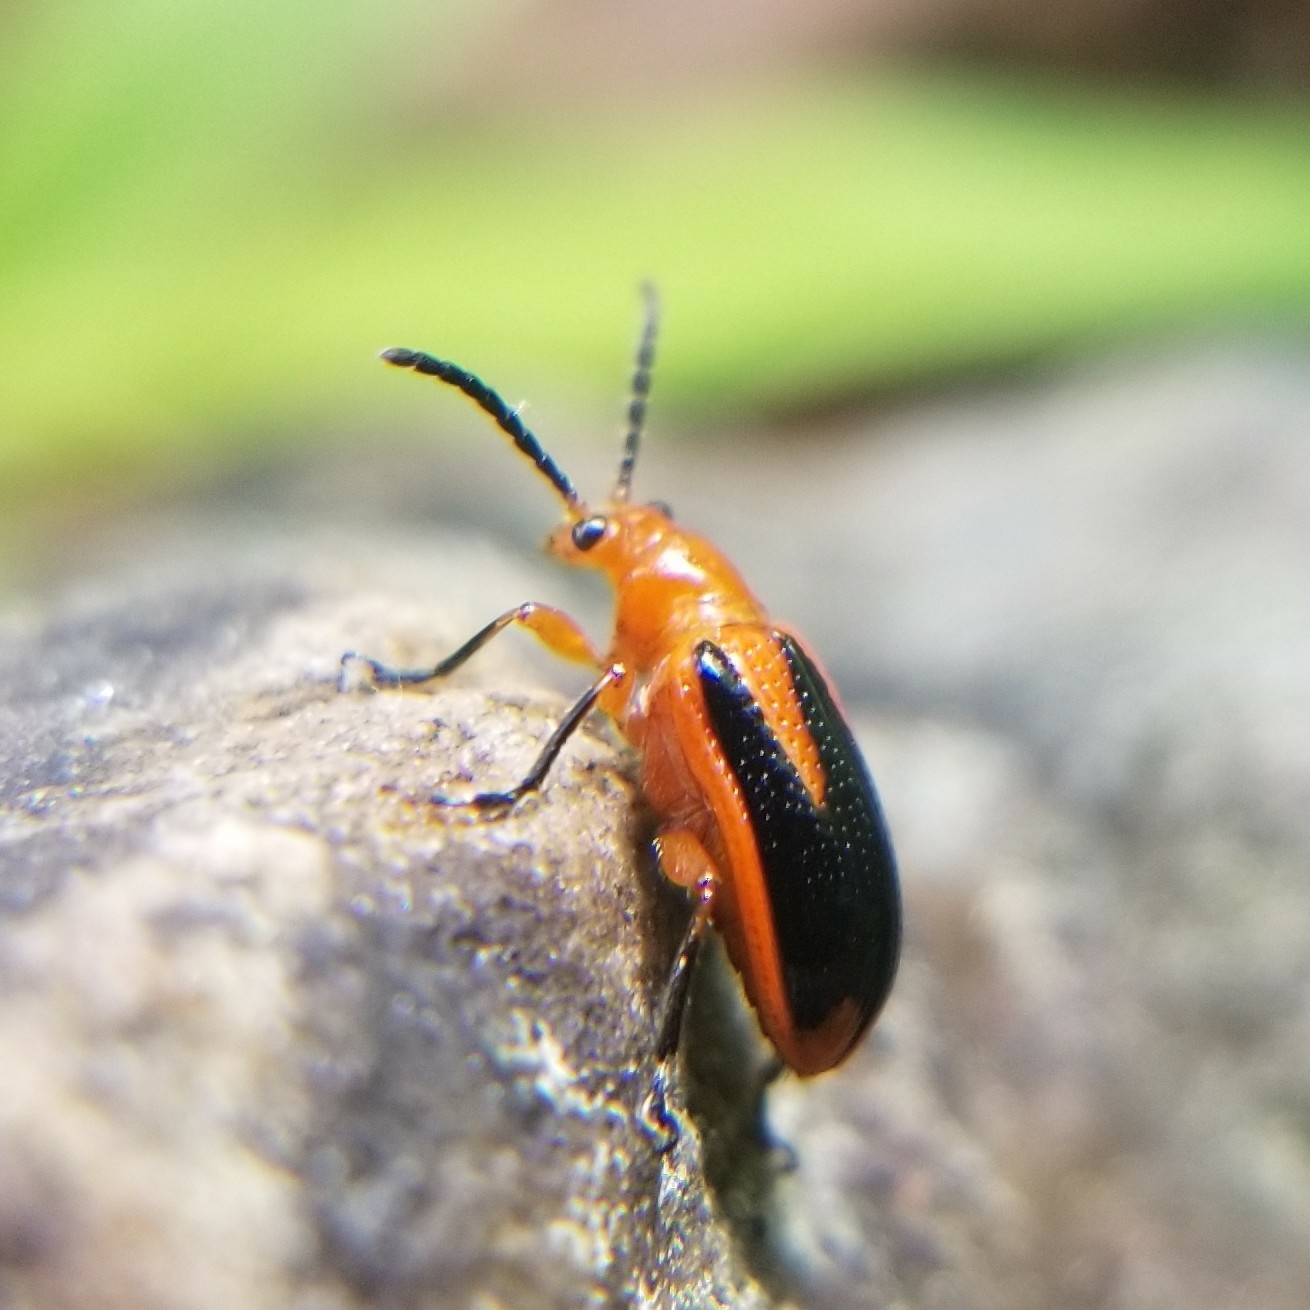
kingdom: Animalia
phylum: Arthropoda
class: Insecta
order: Coleoptera
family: Chrysomelidae
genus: Lema
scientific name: Lema conjuncta
